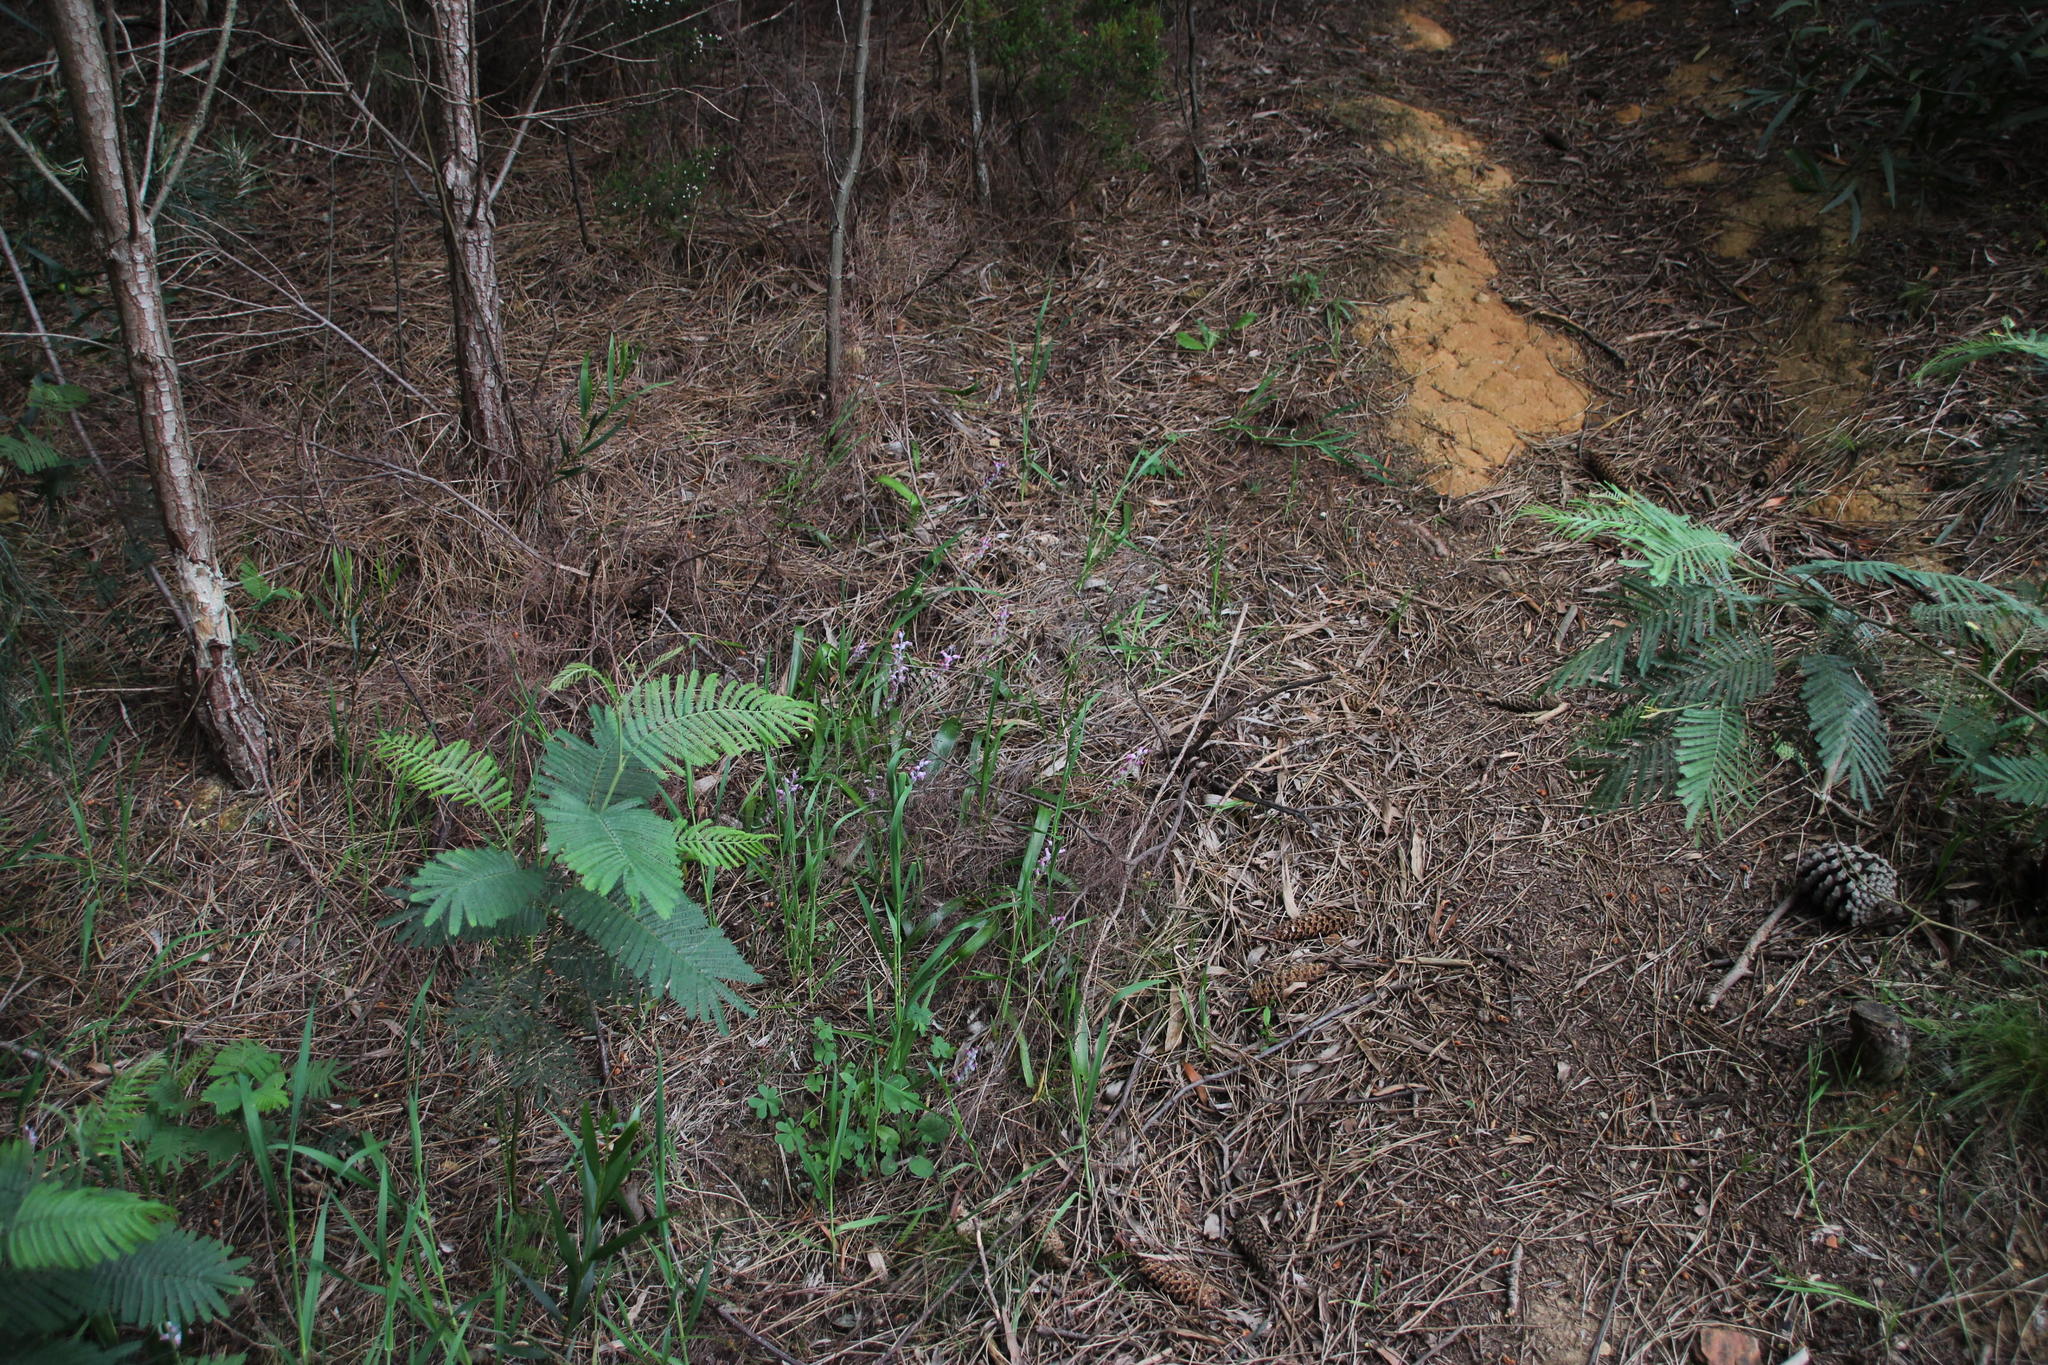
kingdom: Plantae
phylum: Tracheophyta
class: Liliopsida
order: Asparagales
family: Asparagaceae
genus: Lachenalia
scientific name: Lachenalia rosea
